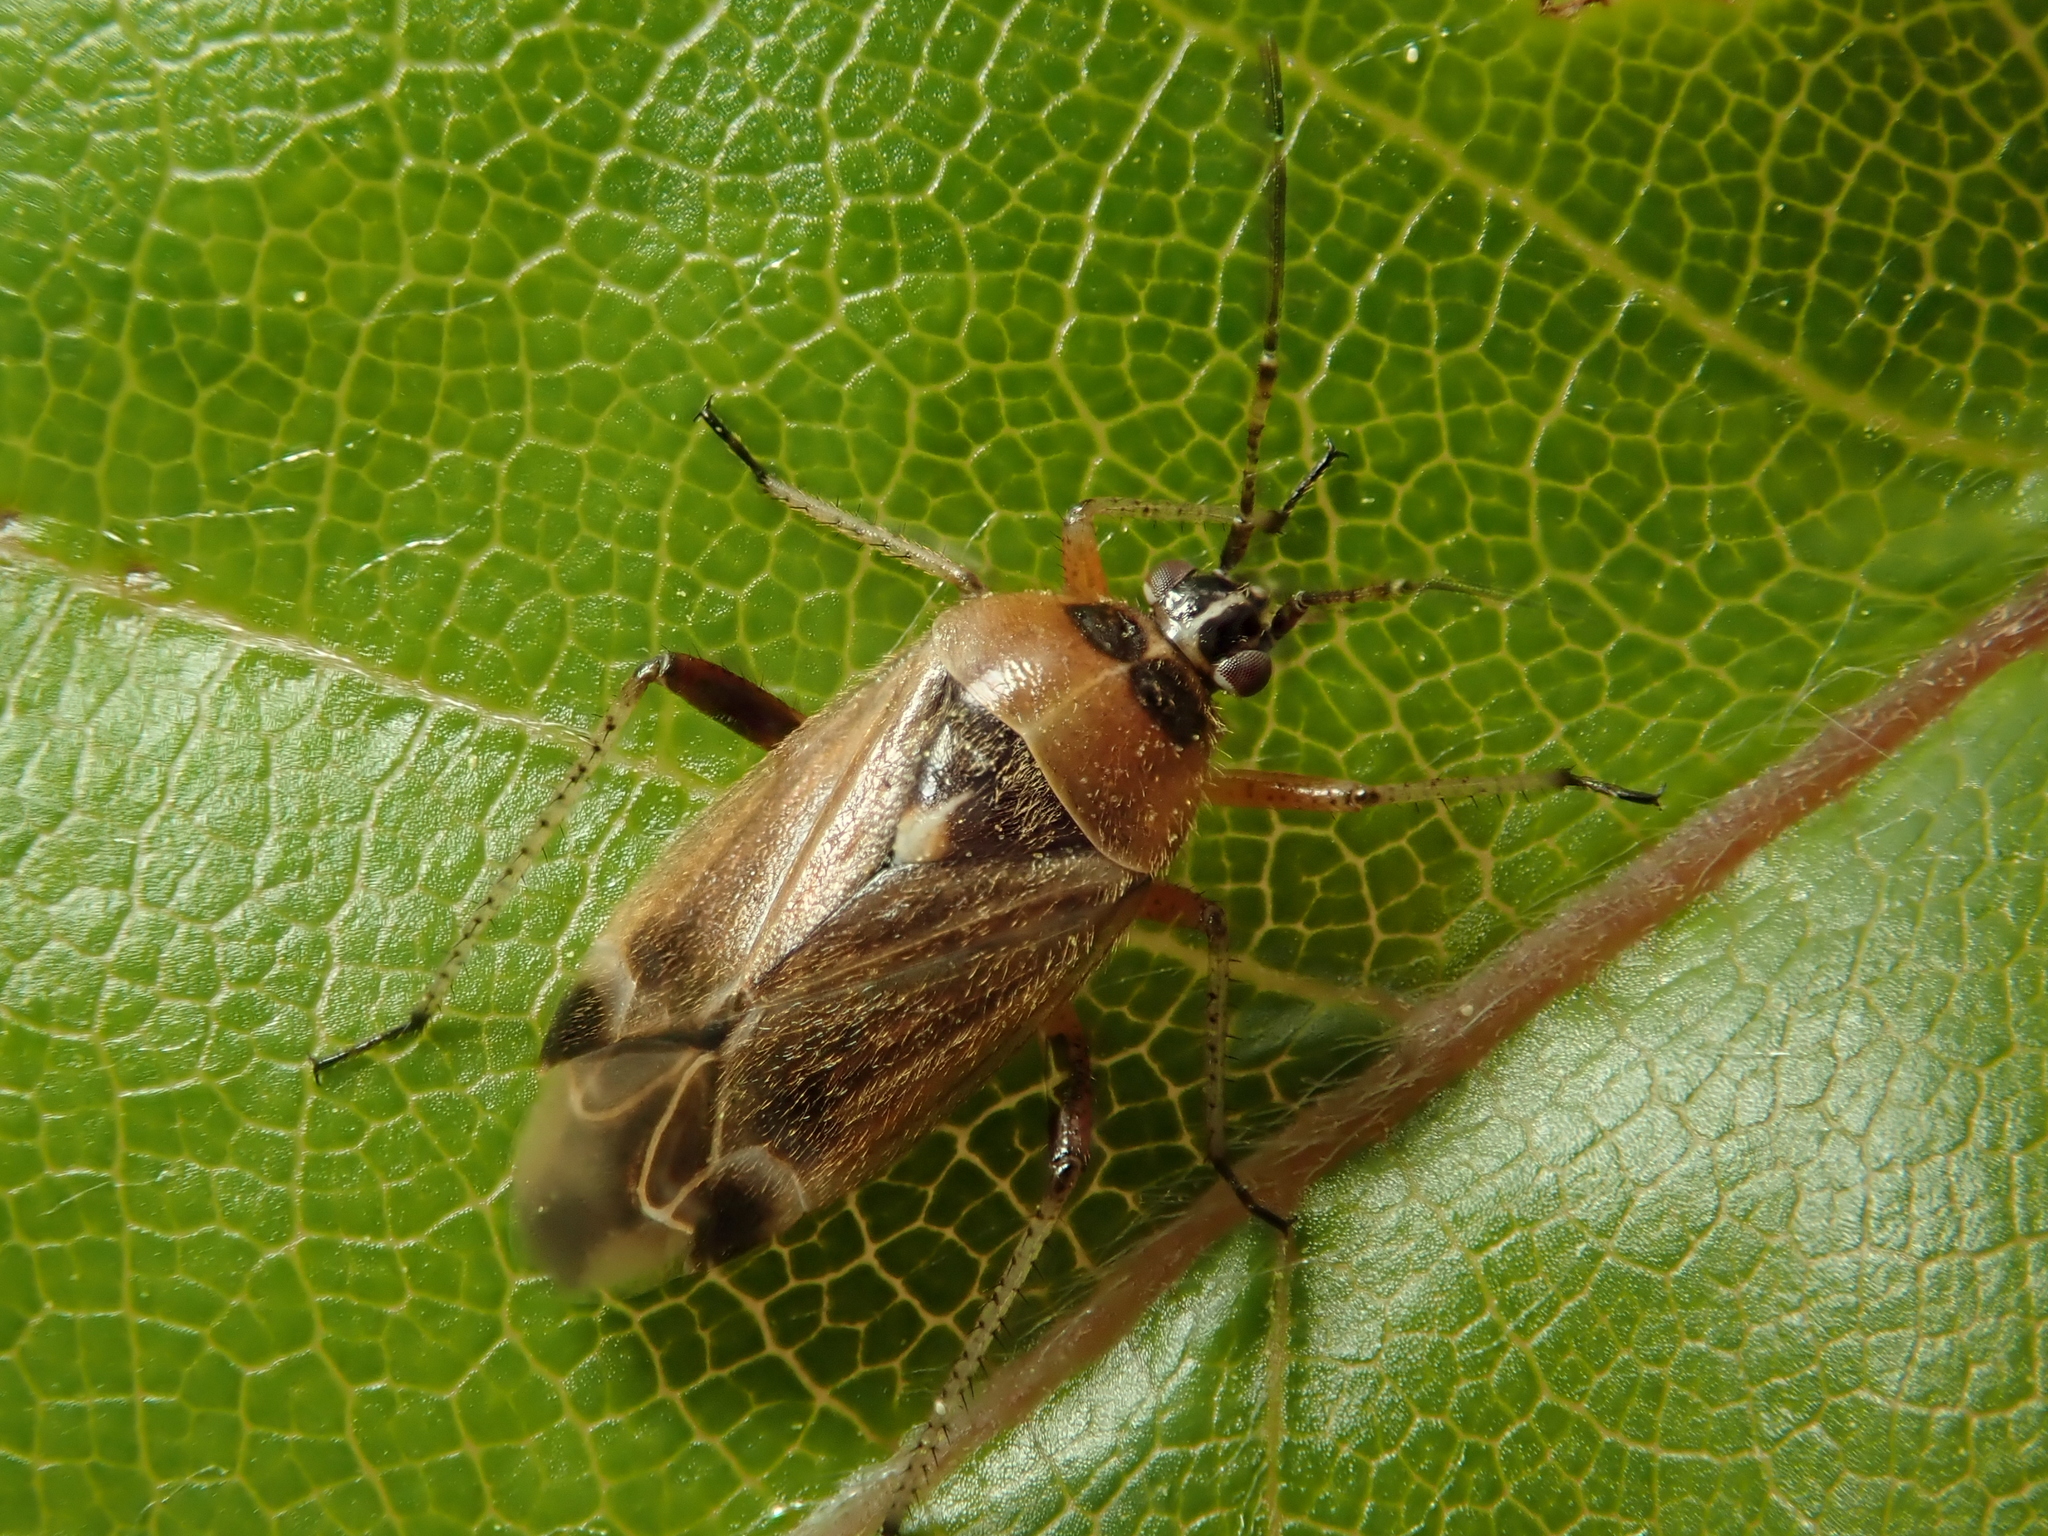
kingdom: Animalia
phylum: Arthropoda
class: Insecta
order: Hemiptera
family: Miridae
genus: Harpocera
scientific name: Harpocera thoracica
